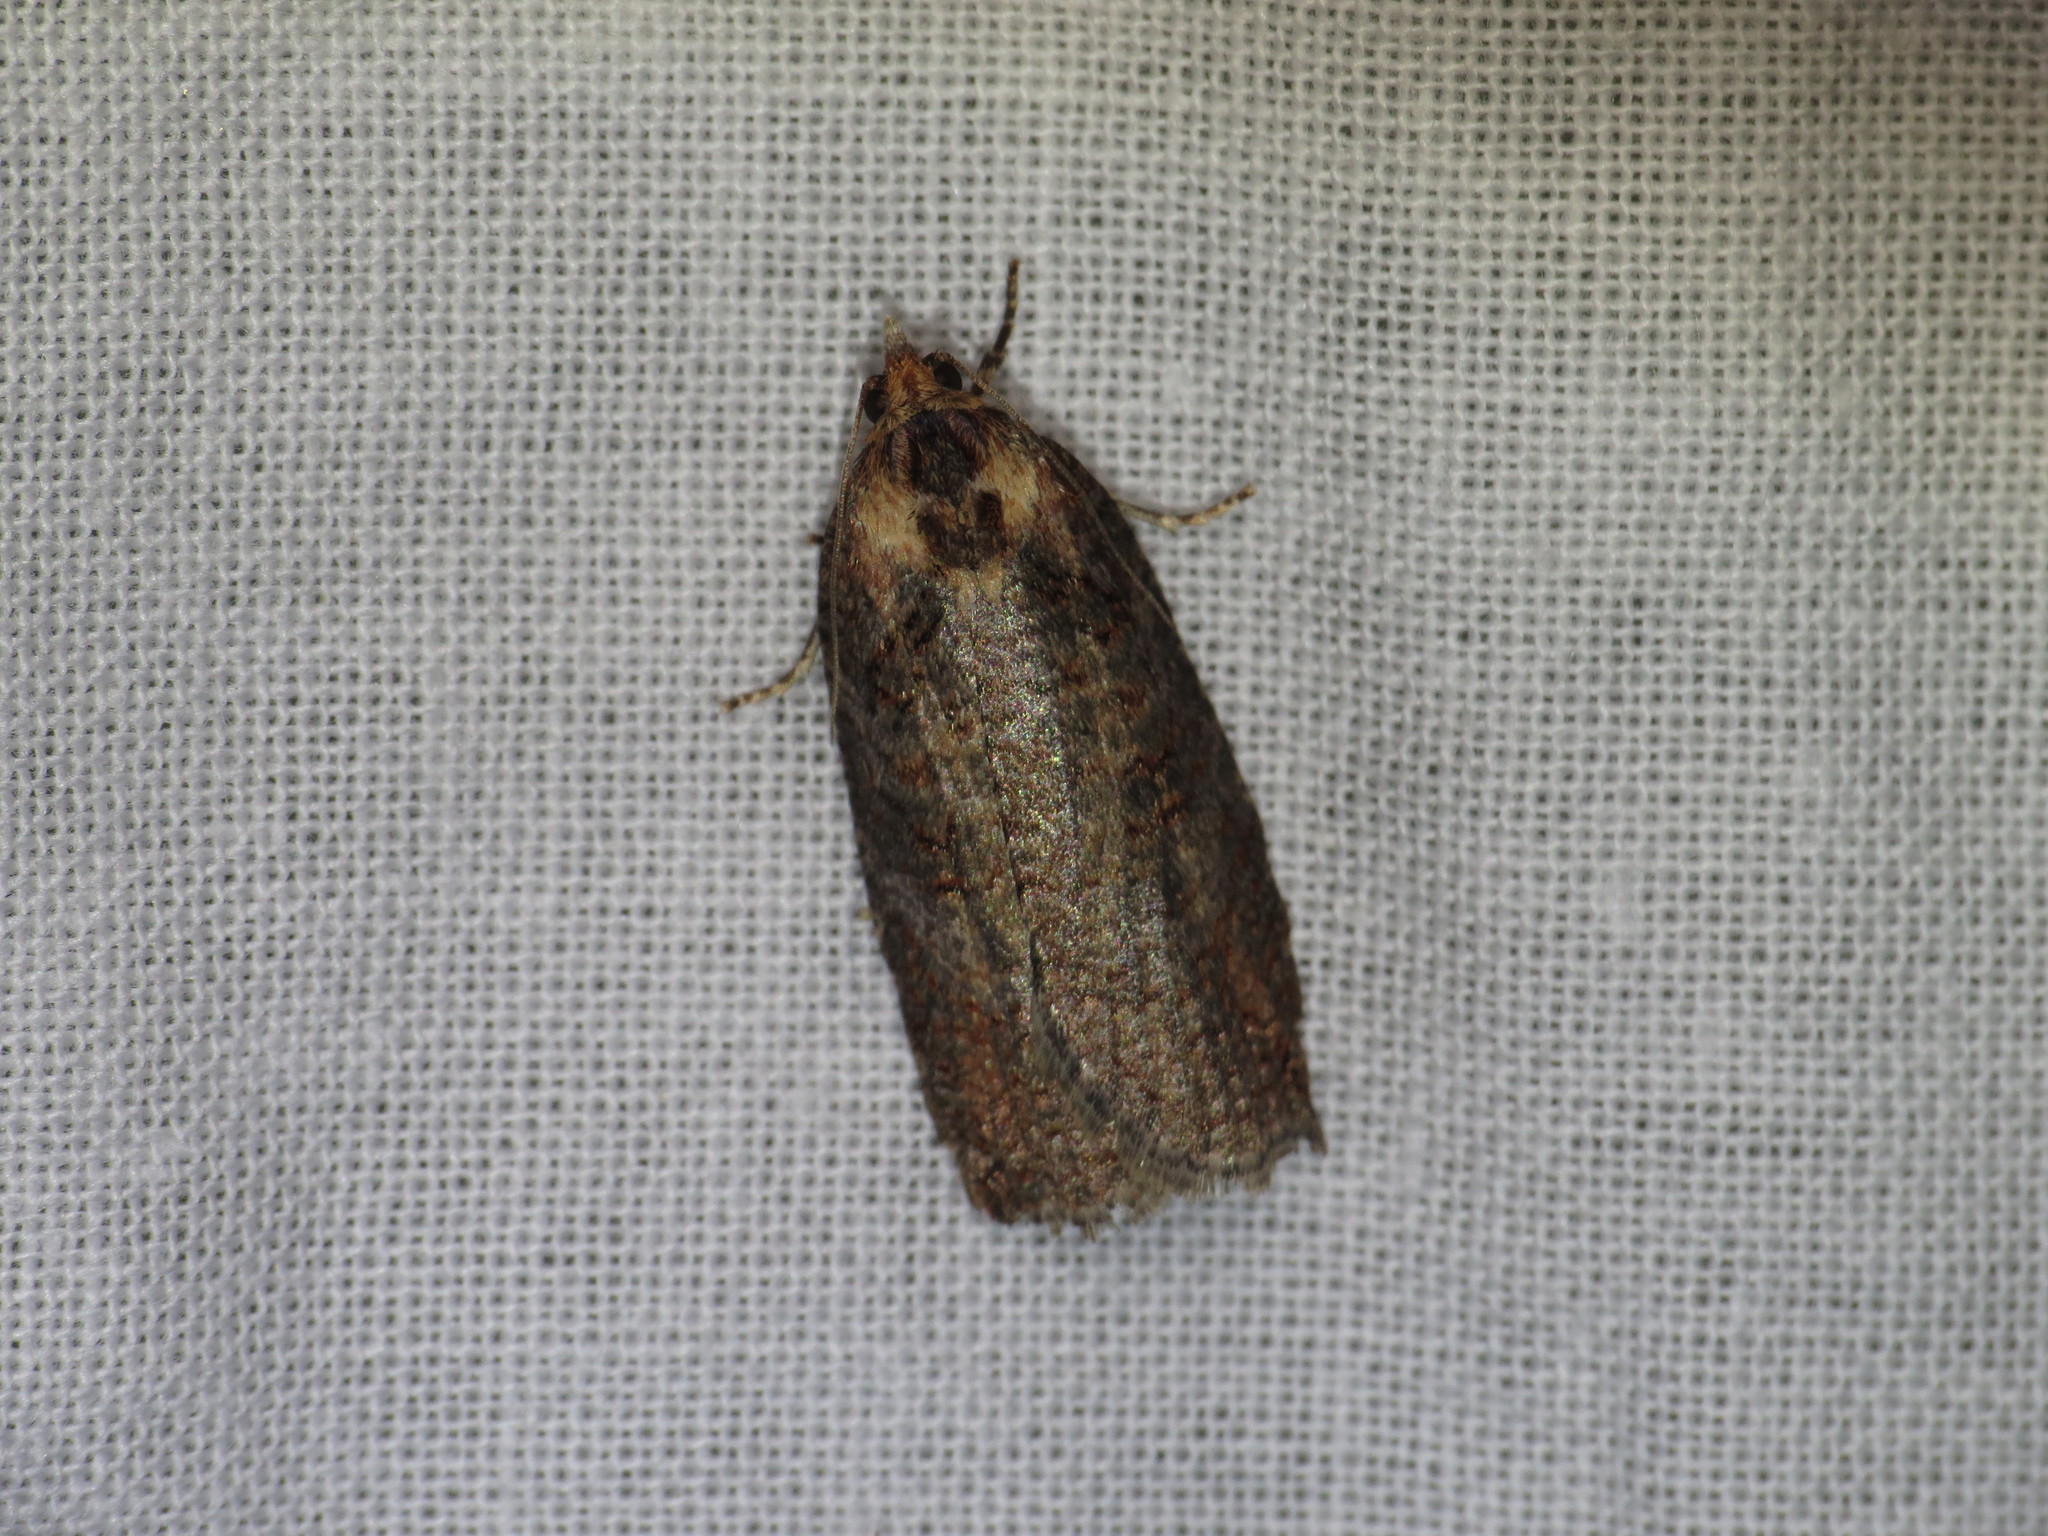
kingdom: Animalia
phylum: Arthropoda
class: Insecta
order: Lepidoptera
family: Tortricidae
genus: Cryptoptila
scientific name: Cryptoptila immersana
